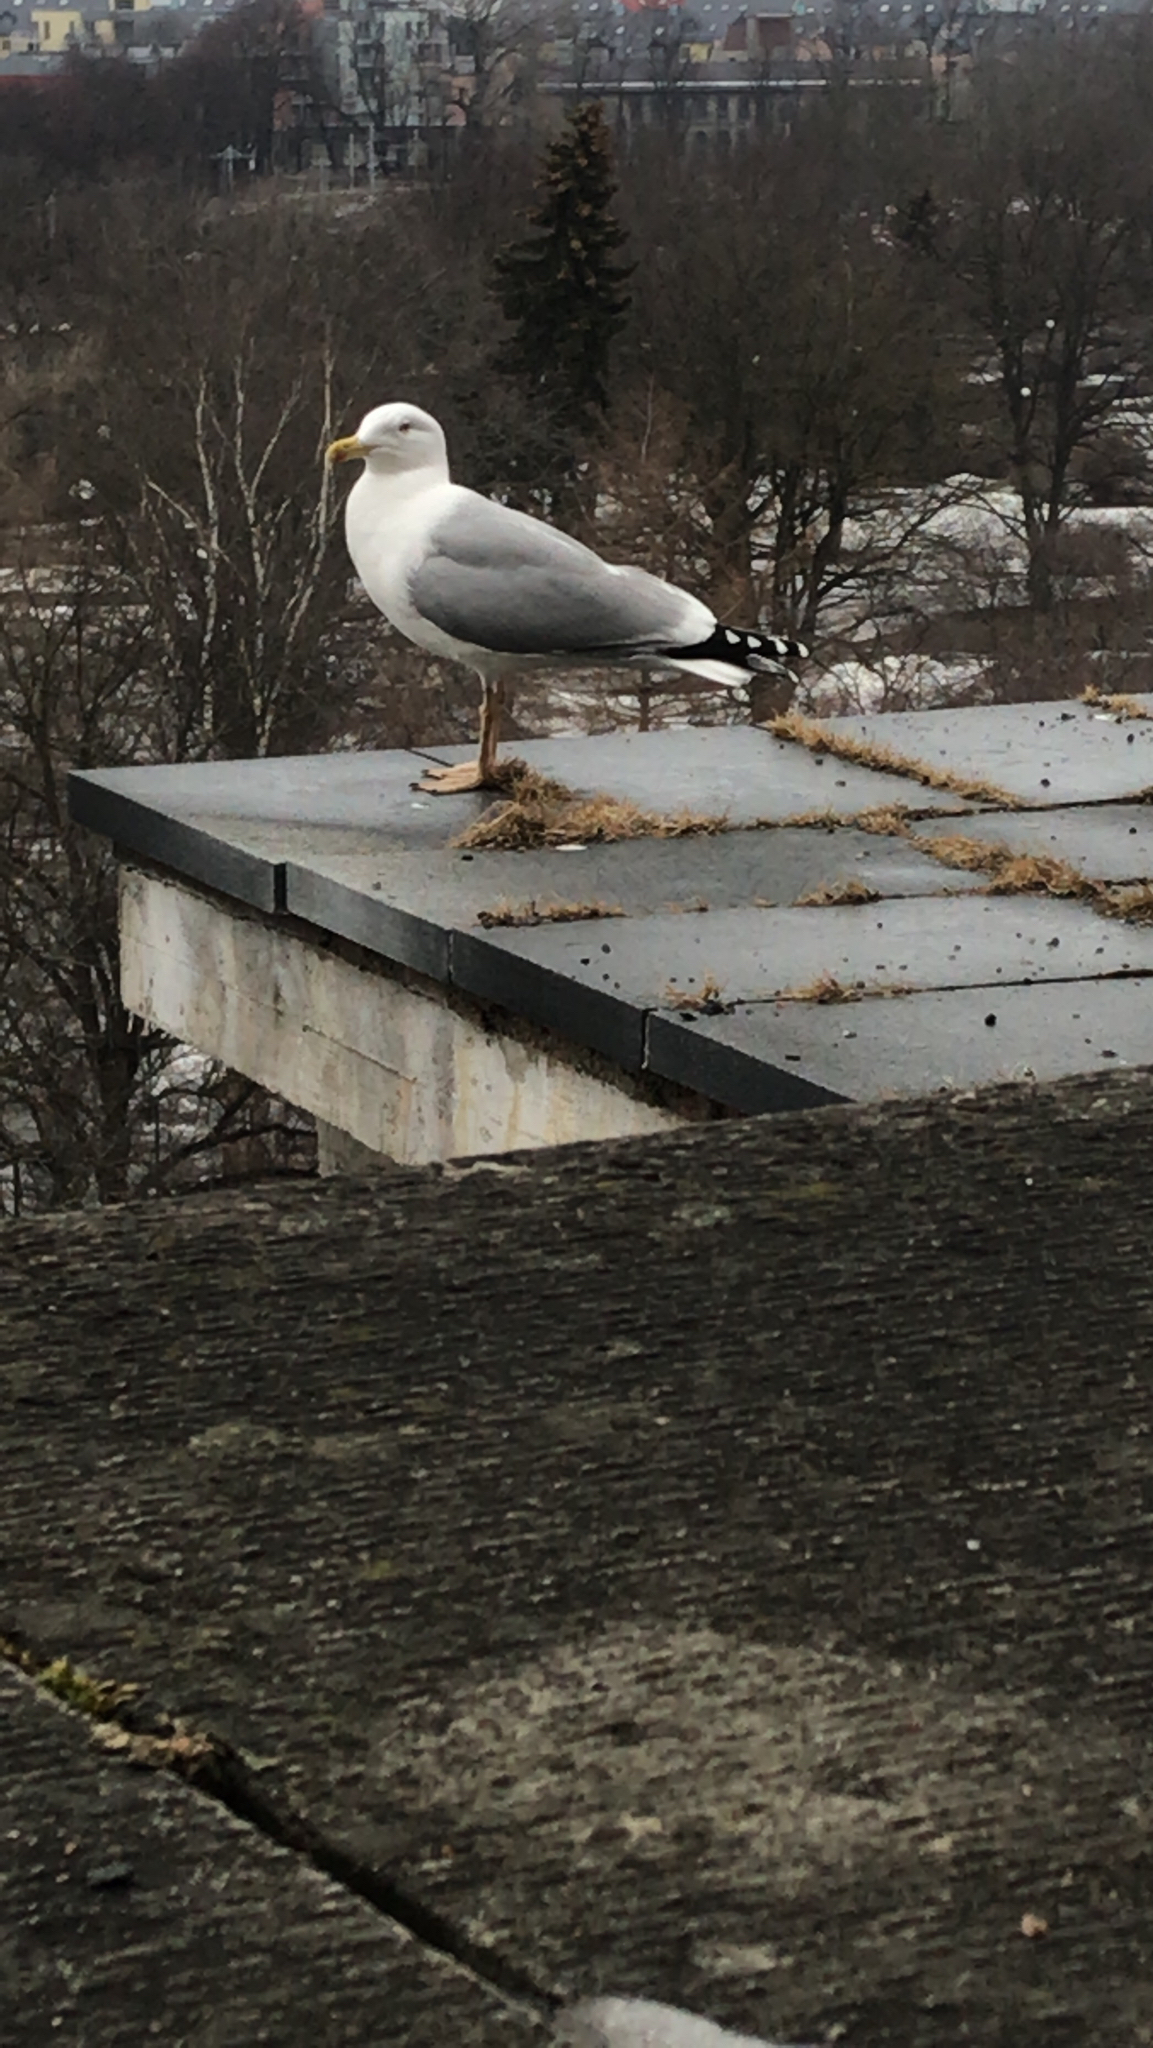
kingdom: Animalia
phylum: Chordata
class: Aves
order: Charadriiformes
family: Laridae
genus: Larus
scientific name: Larus argentatus
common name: Herring gull
